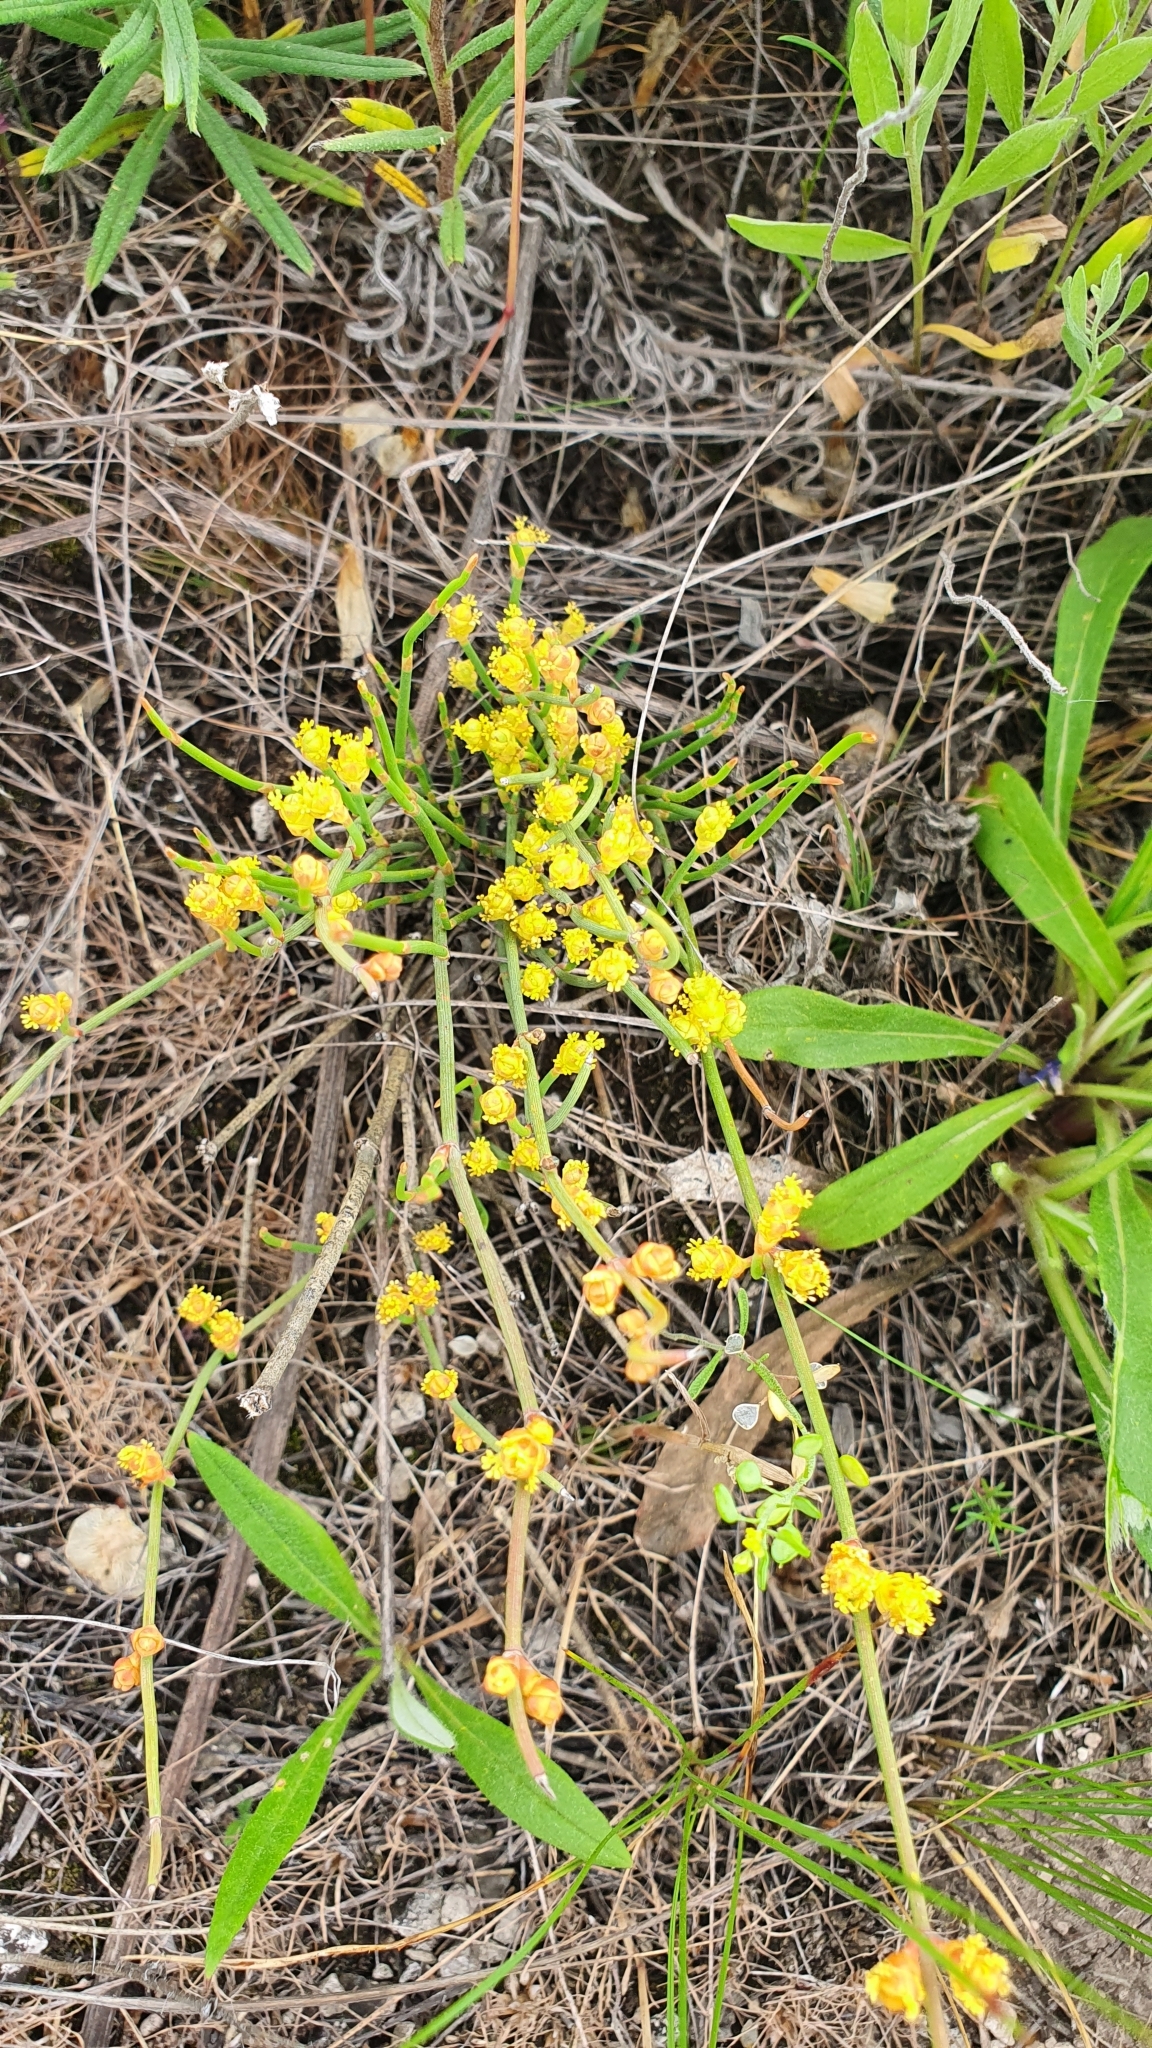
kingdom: Plantae
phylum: Tracheophyta
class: Gnetopsida
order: Ephedrales
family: Ephedraceae
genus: Ephedra
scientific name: Ephedra distachya
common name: Sea grape
